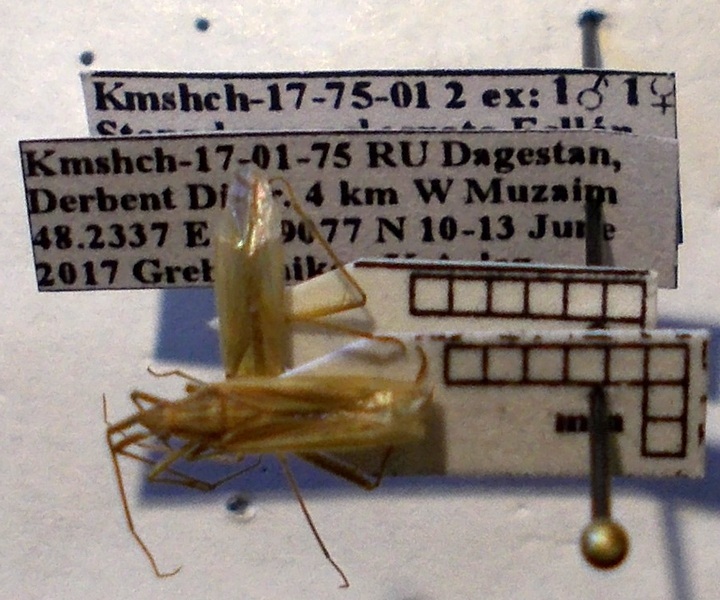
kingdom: Animalia
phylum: Arthropoda
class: Insecta
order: Hemiptera
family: Miridae
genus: Stenodema
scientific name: Stenodema calcarata
